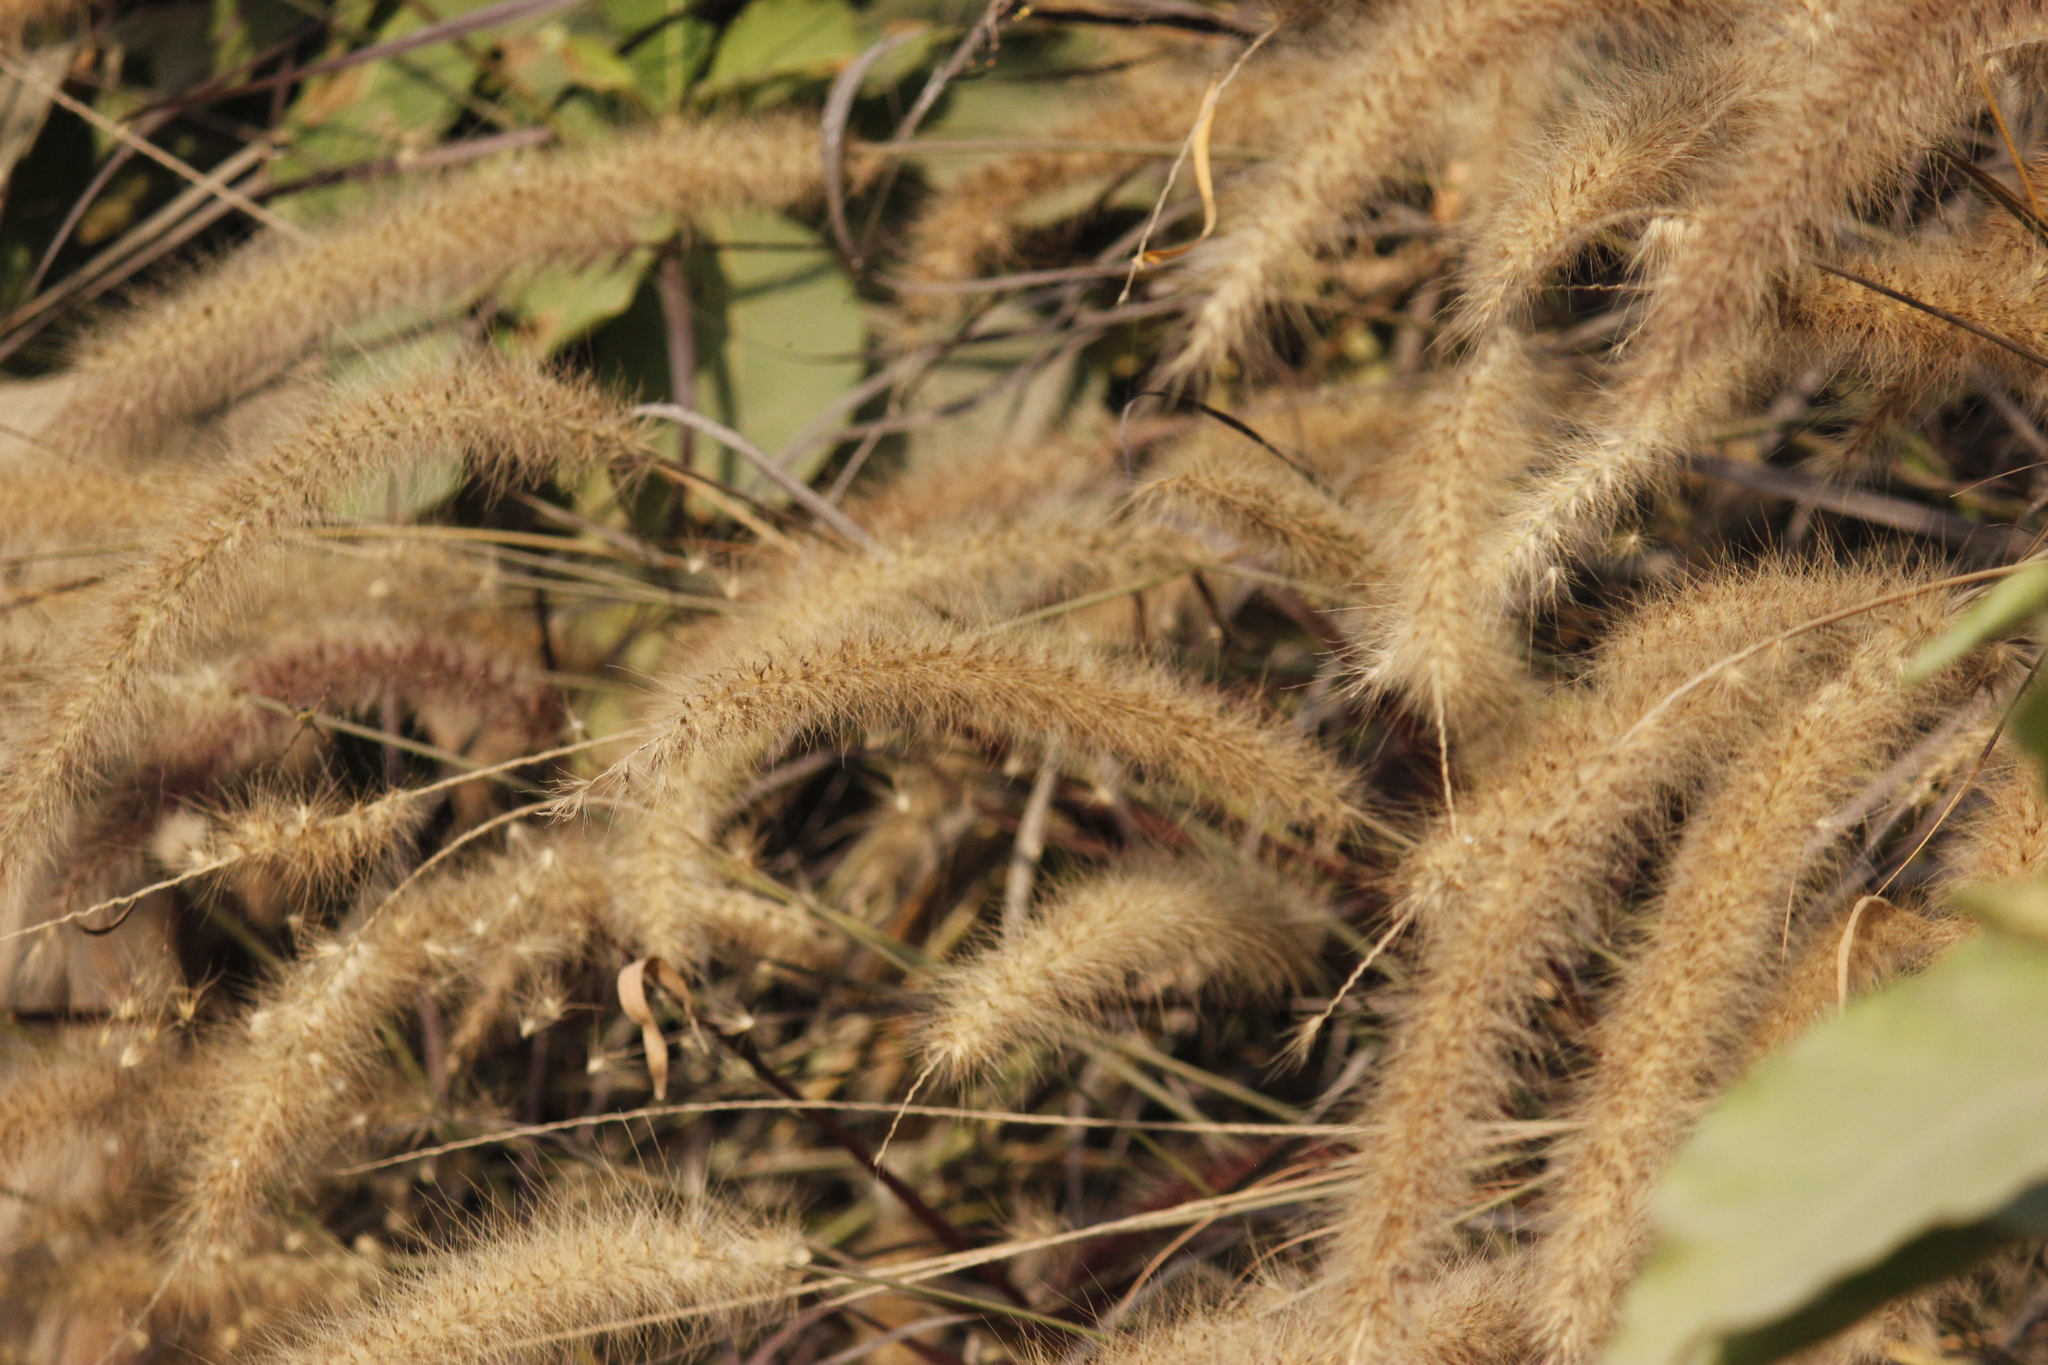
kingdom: Plantae
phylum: Tracheophyta
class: Liliopsida
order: Poales
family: Poaceae
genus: Cenchrus
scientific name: Cenchrus setaceus
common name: Crimson fountaingrass
